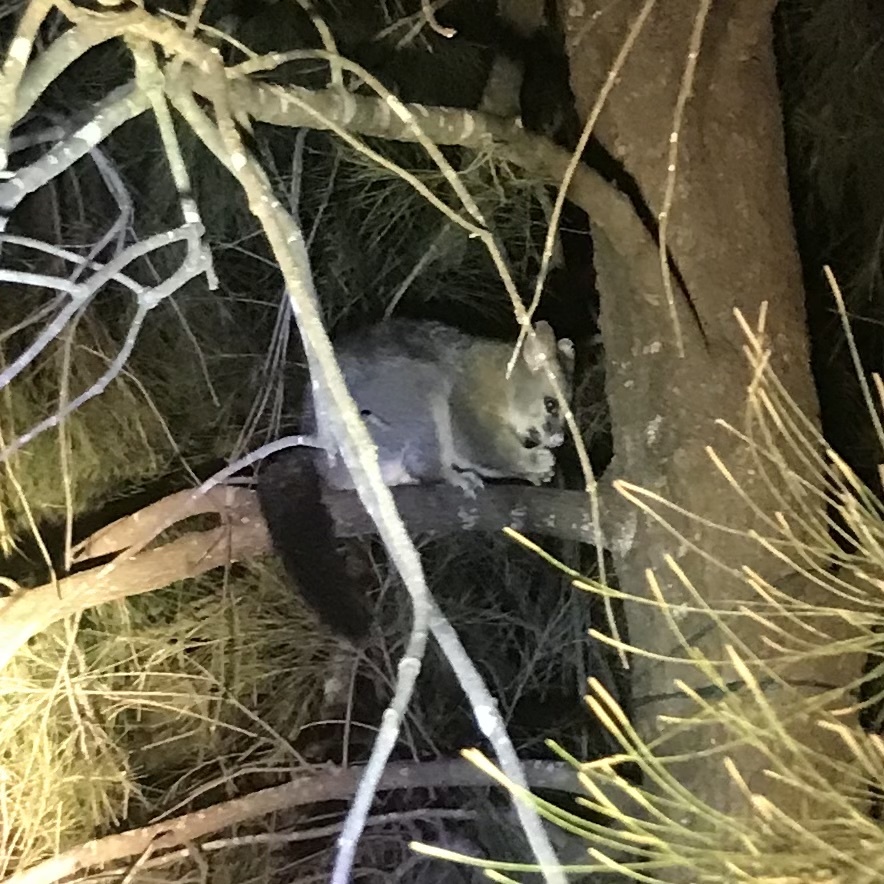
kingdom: Animalia
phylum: Chordata
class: Mammalia
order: Diprotodontia
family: Phalangeridae
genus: Trichosurus
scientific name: Trichosurus vulpecula
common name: Common brushtail
